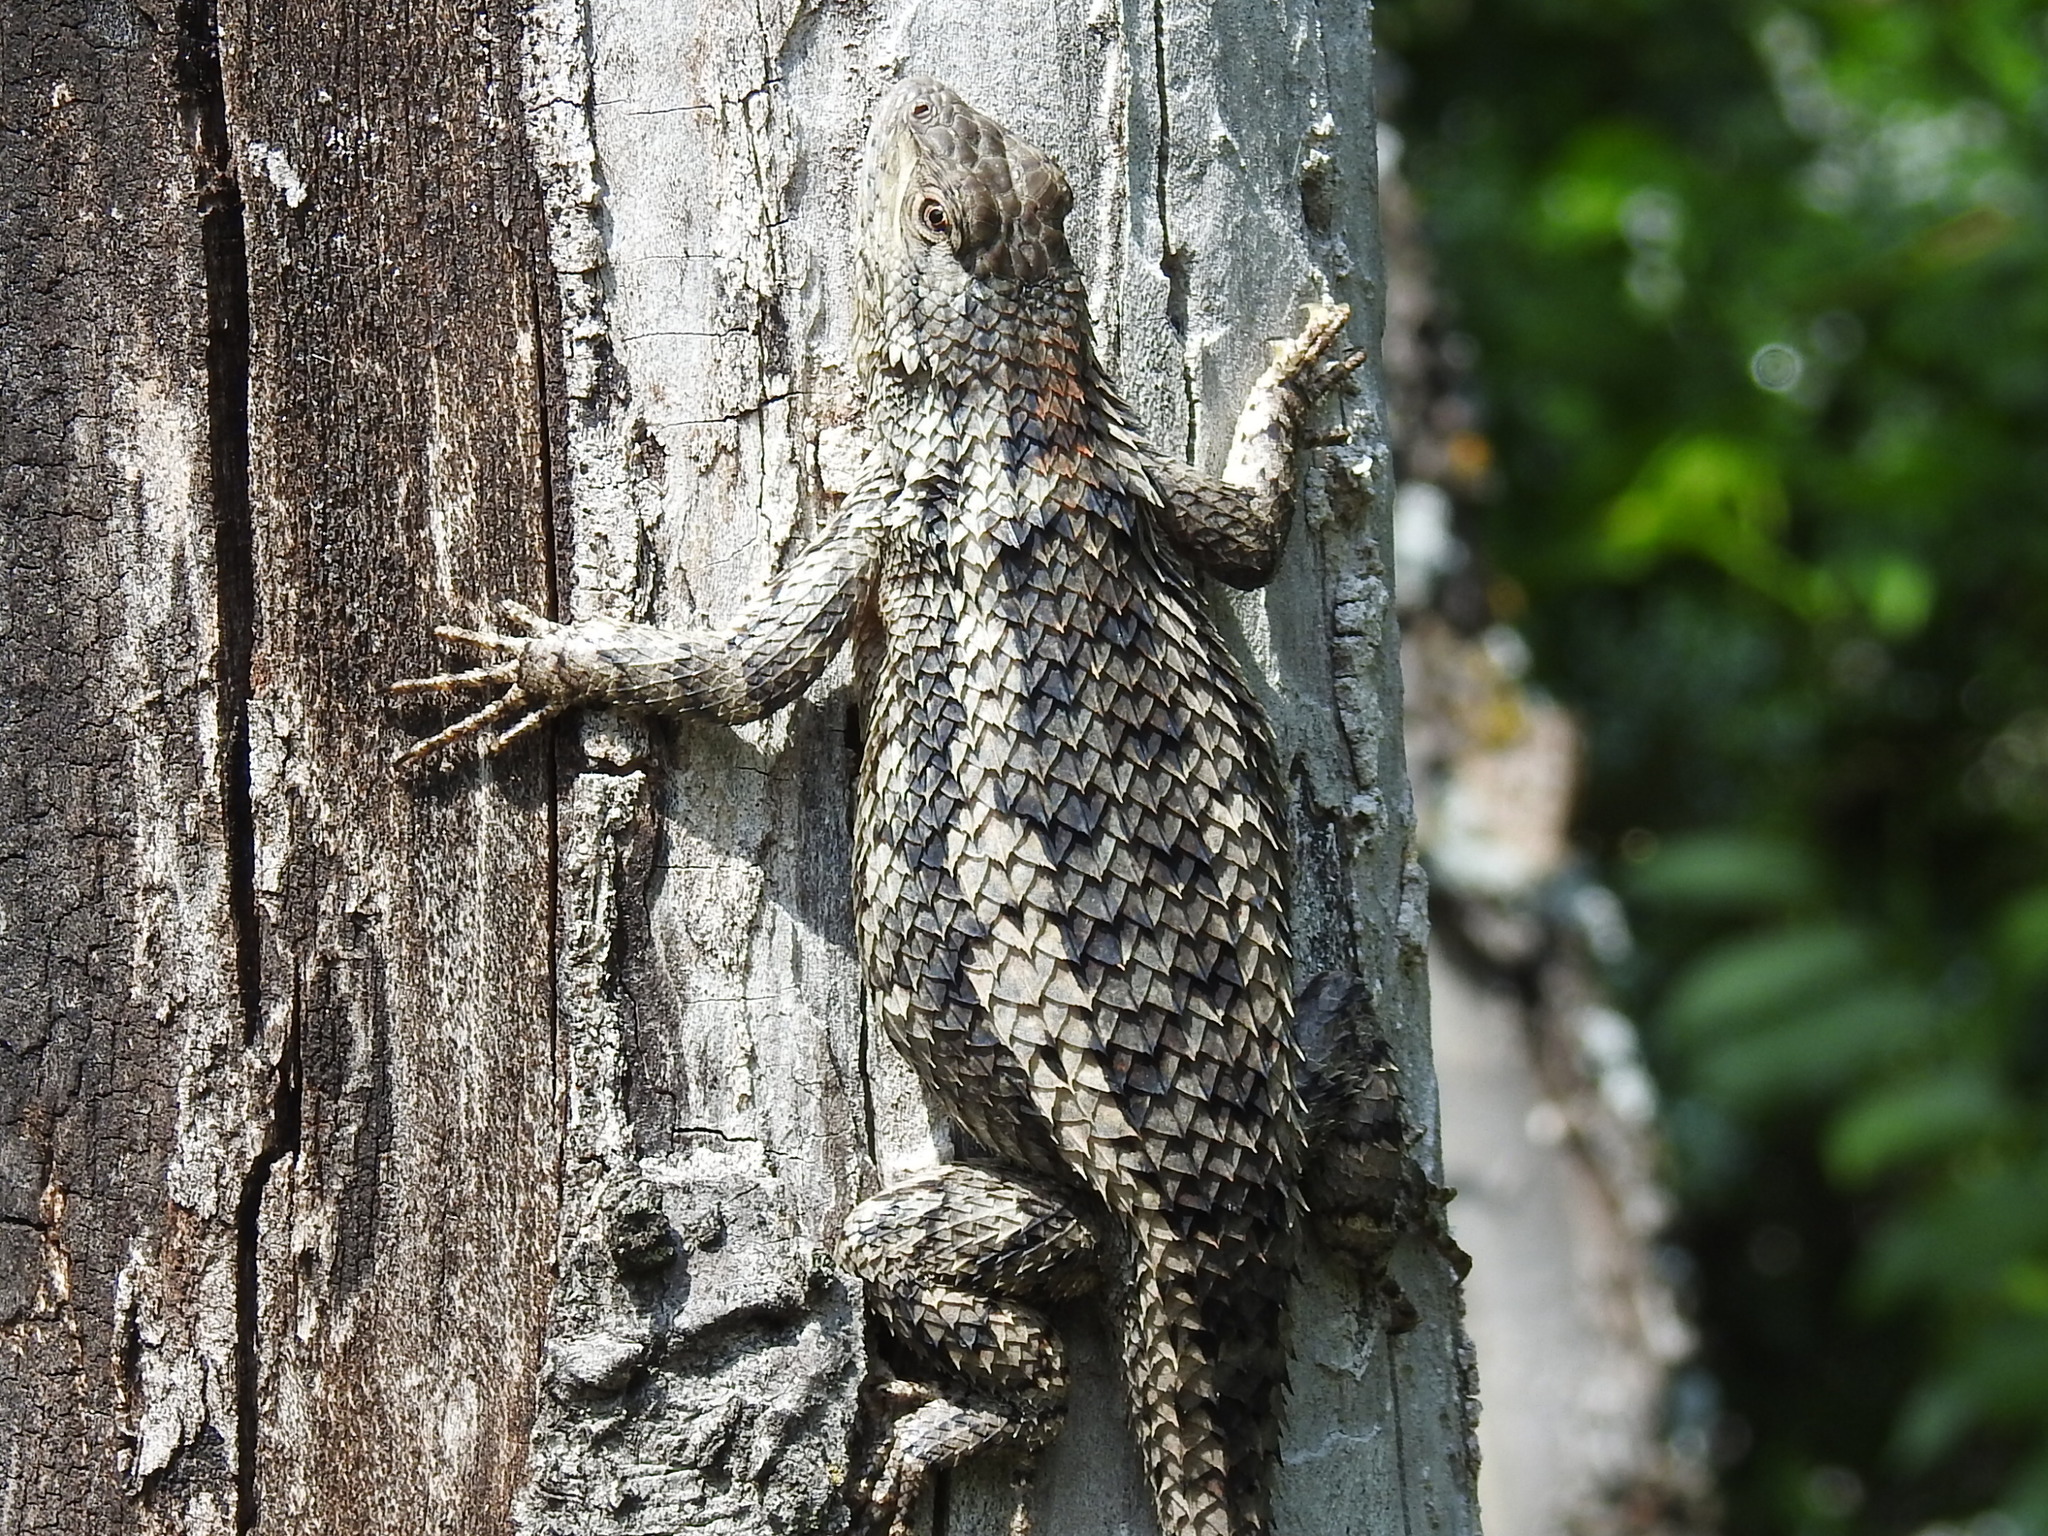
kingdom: Animalia
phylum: Chordata
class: Squamata
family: Phrynosomatidae
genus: Sceloporus
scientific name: Sceloporus olivaceus
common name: Texas spiny lizard
